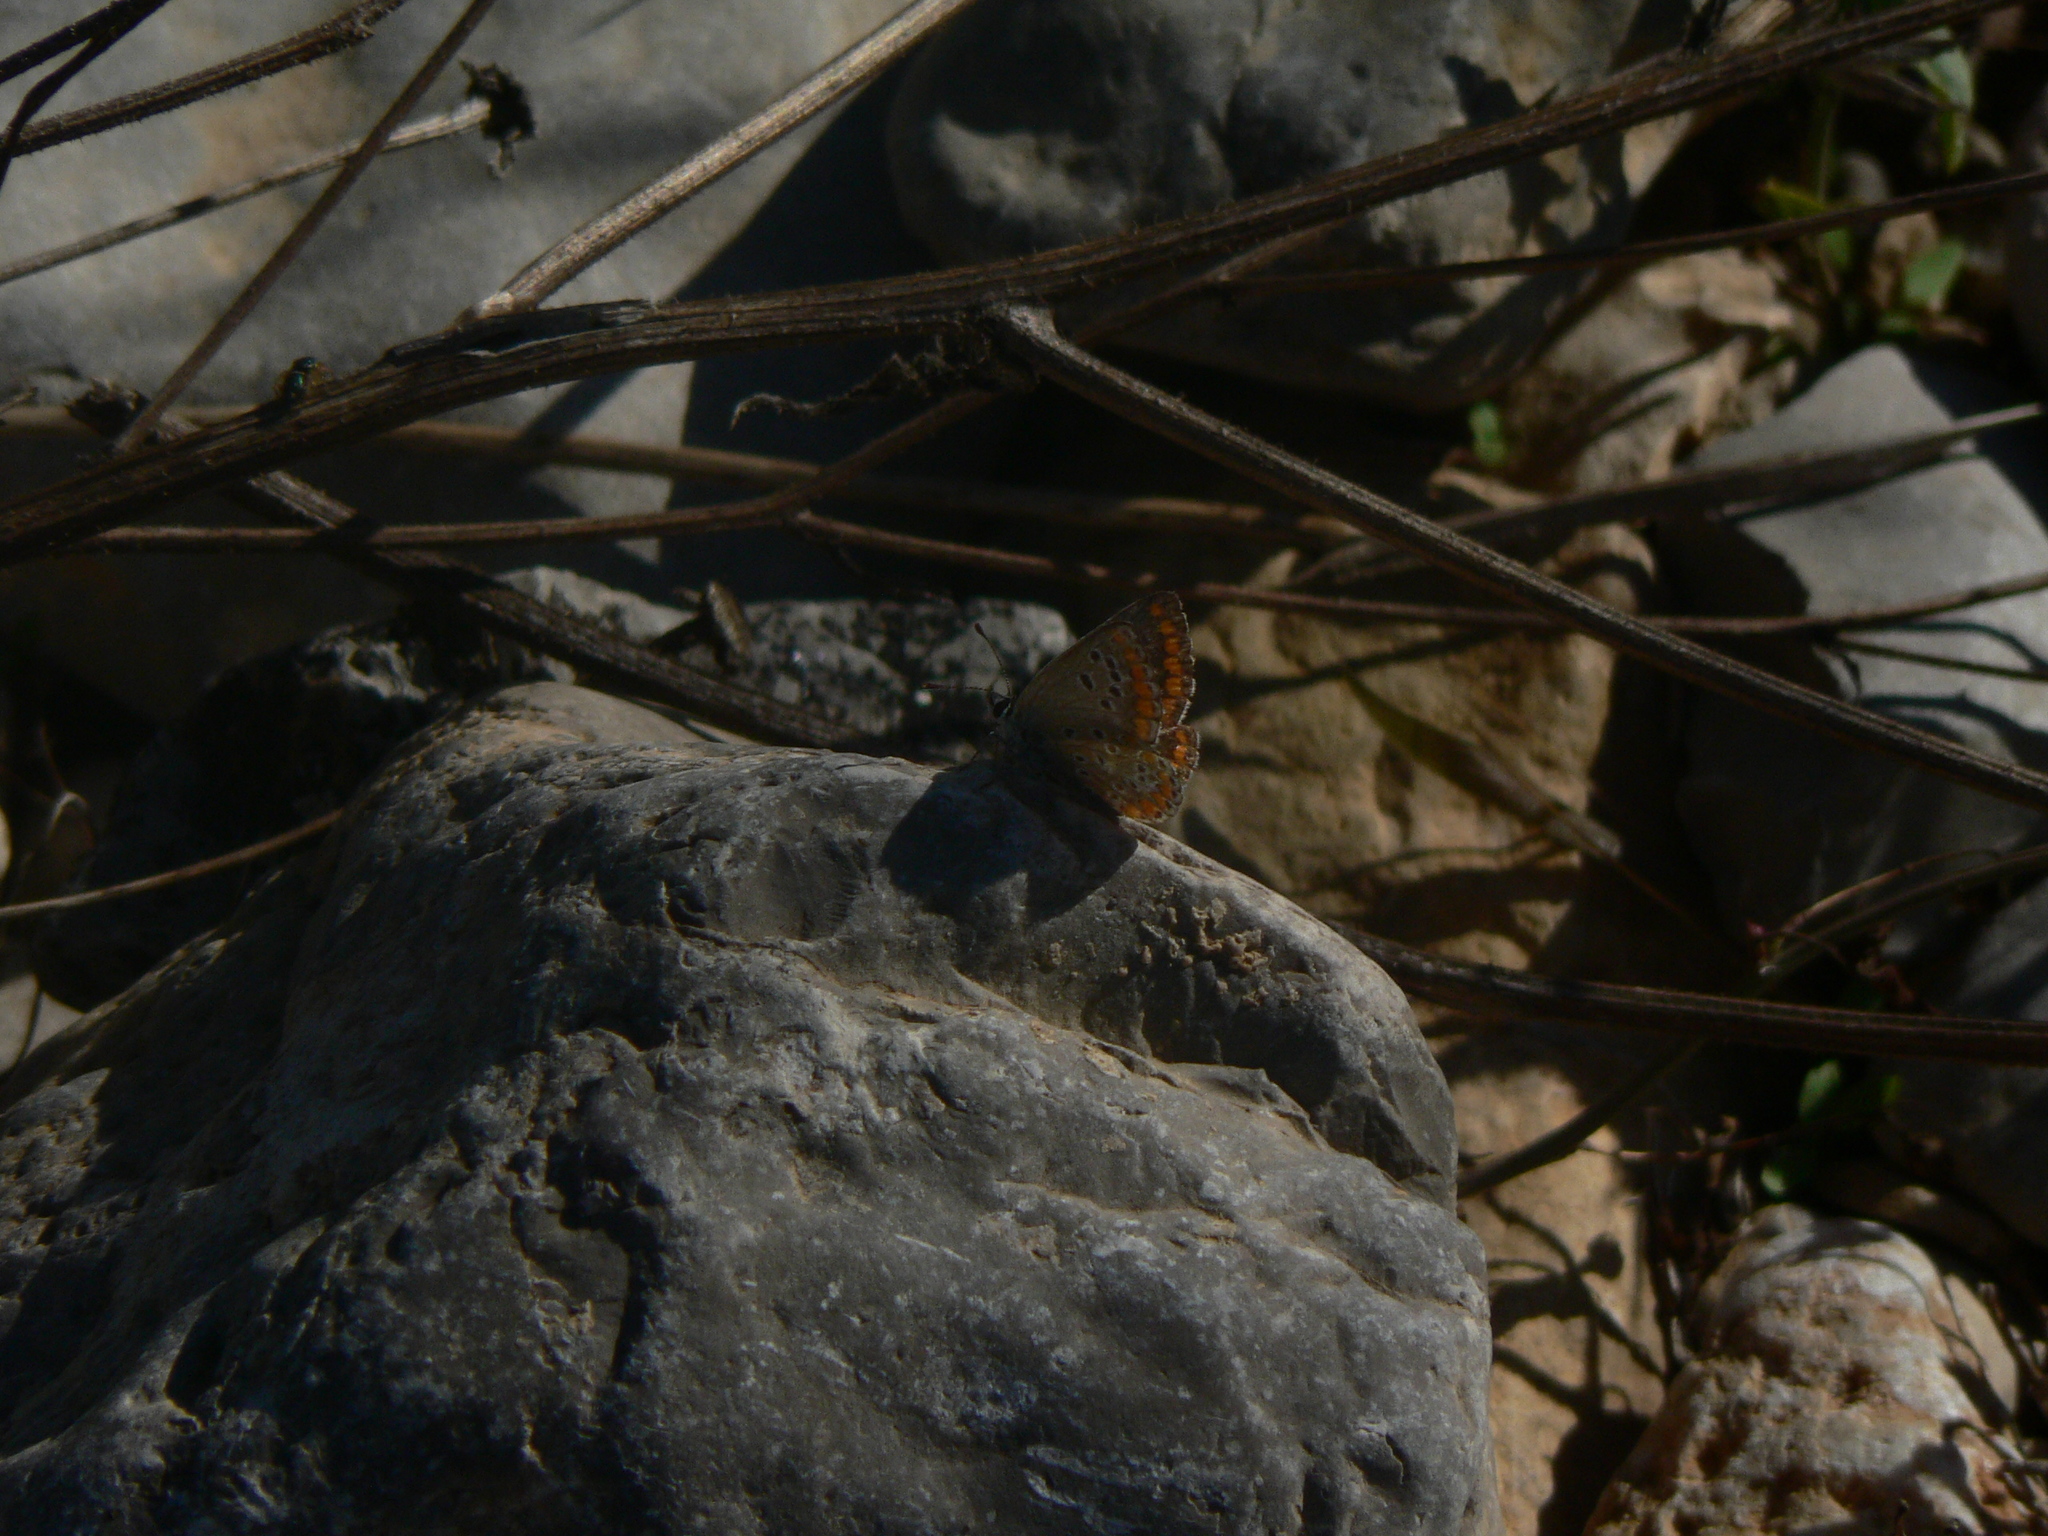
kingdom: Animalia
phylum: Arthropoda
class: Insecta
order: Lepidoptera
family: Lycaenidae
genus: Aricia
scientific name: Aricia agestis
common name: Brown argus
